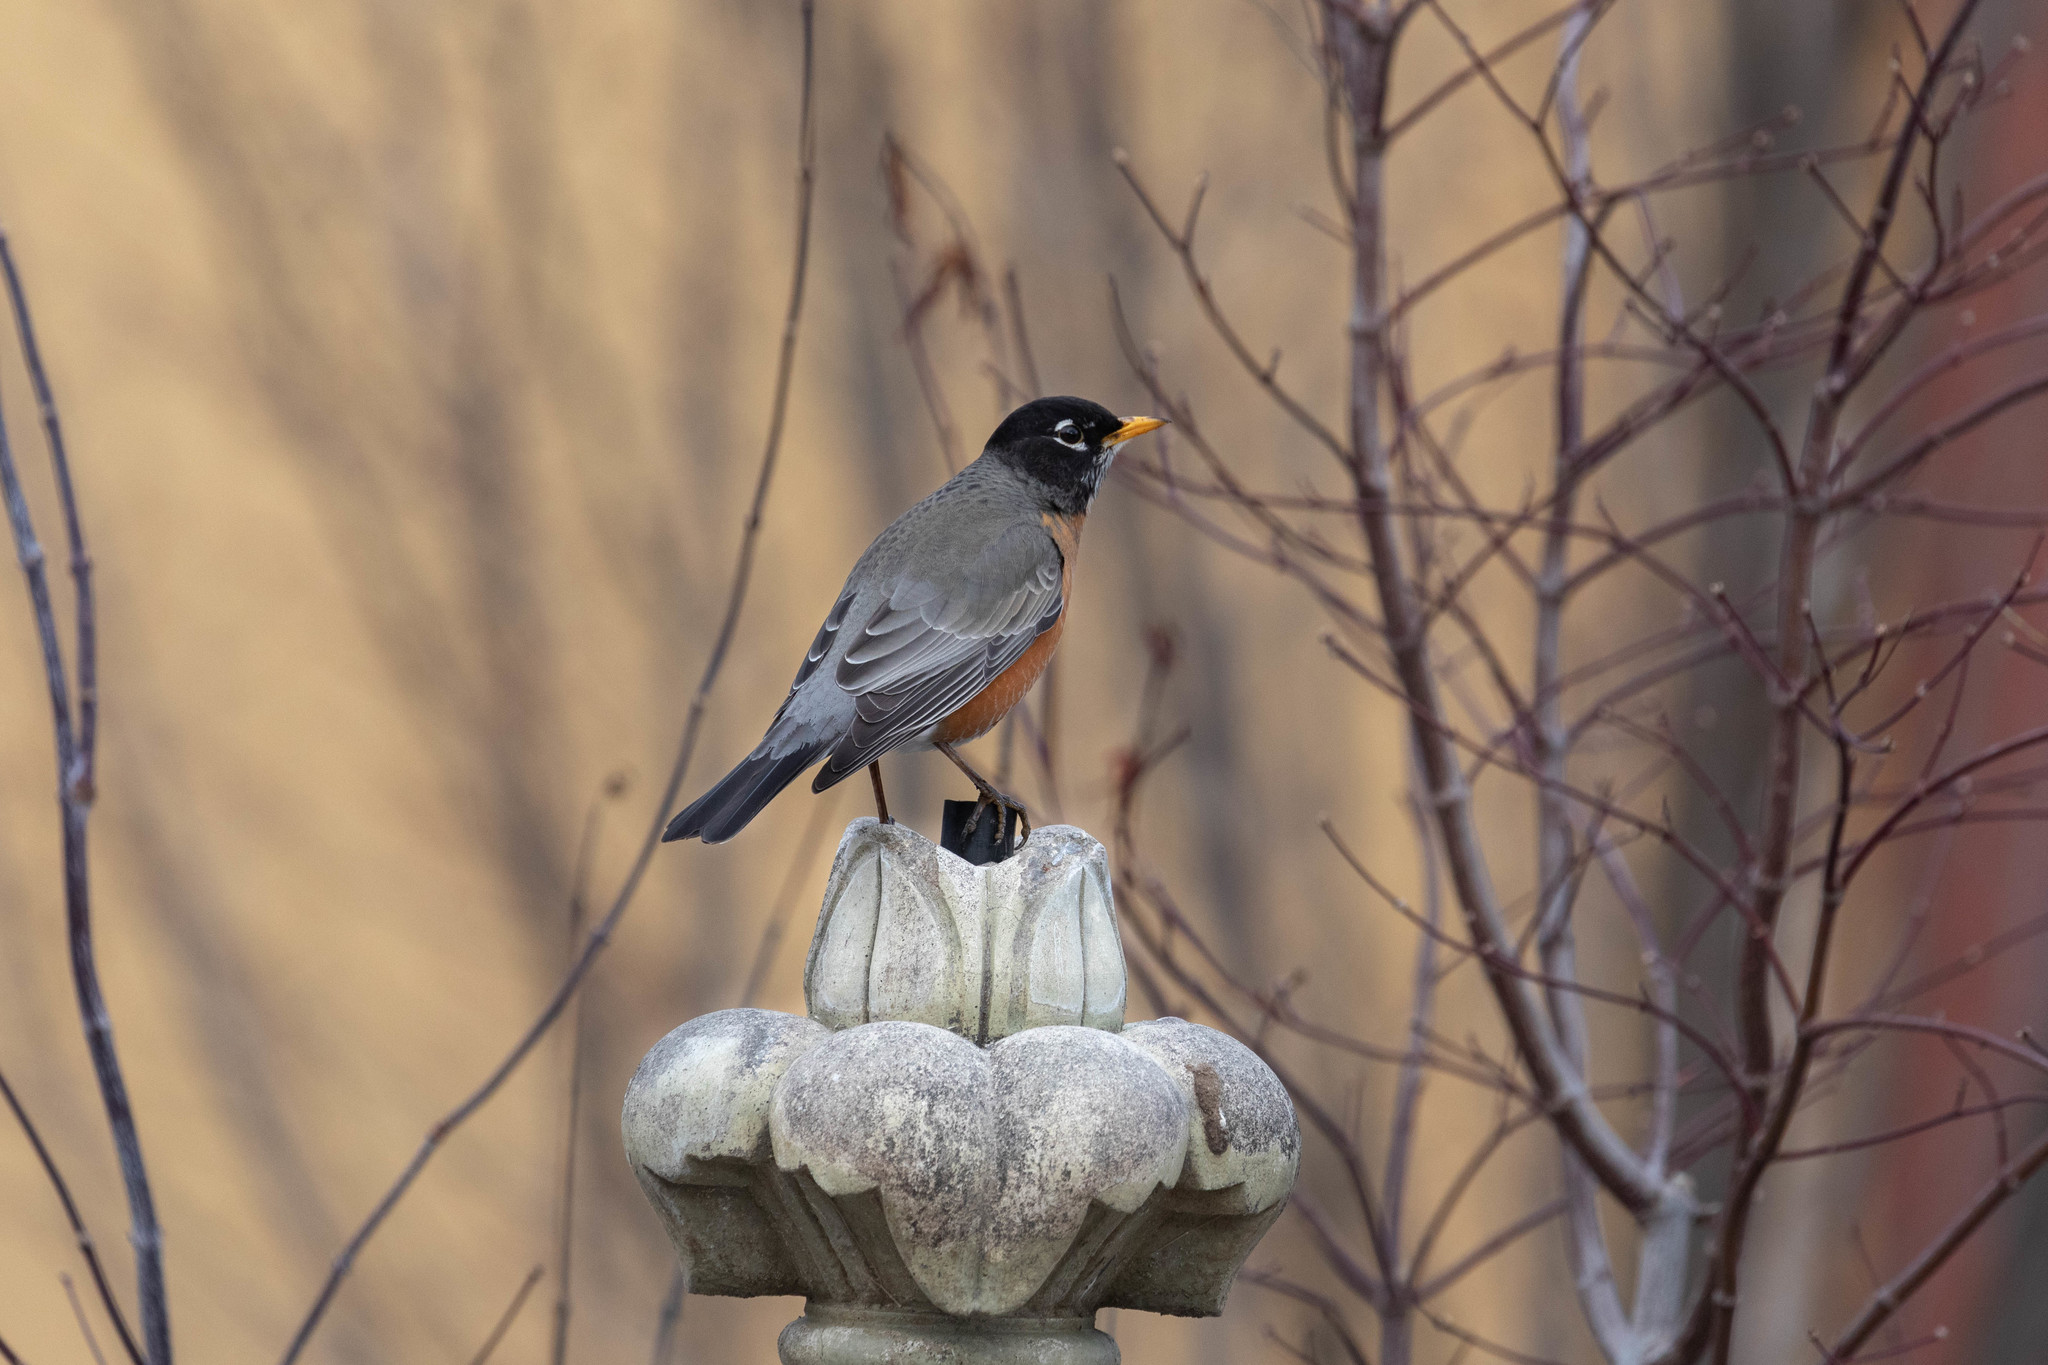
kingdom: Animalia
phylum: Chordata
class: Aves
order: Passeriformes
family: Turdidae
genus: Turdus
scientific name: Turdus migratorius
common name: American robin
